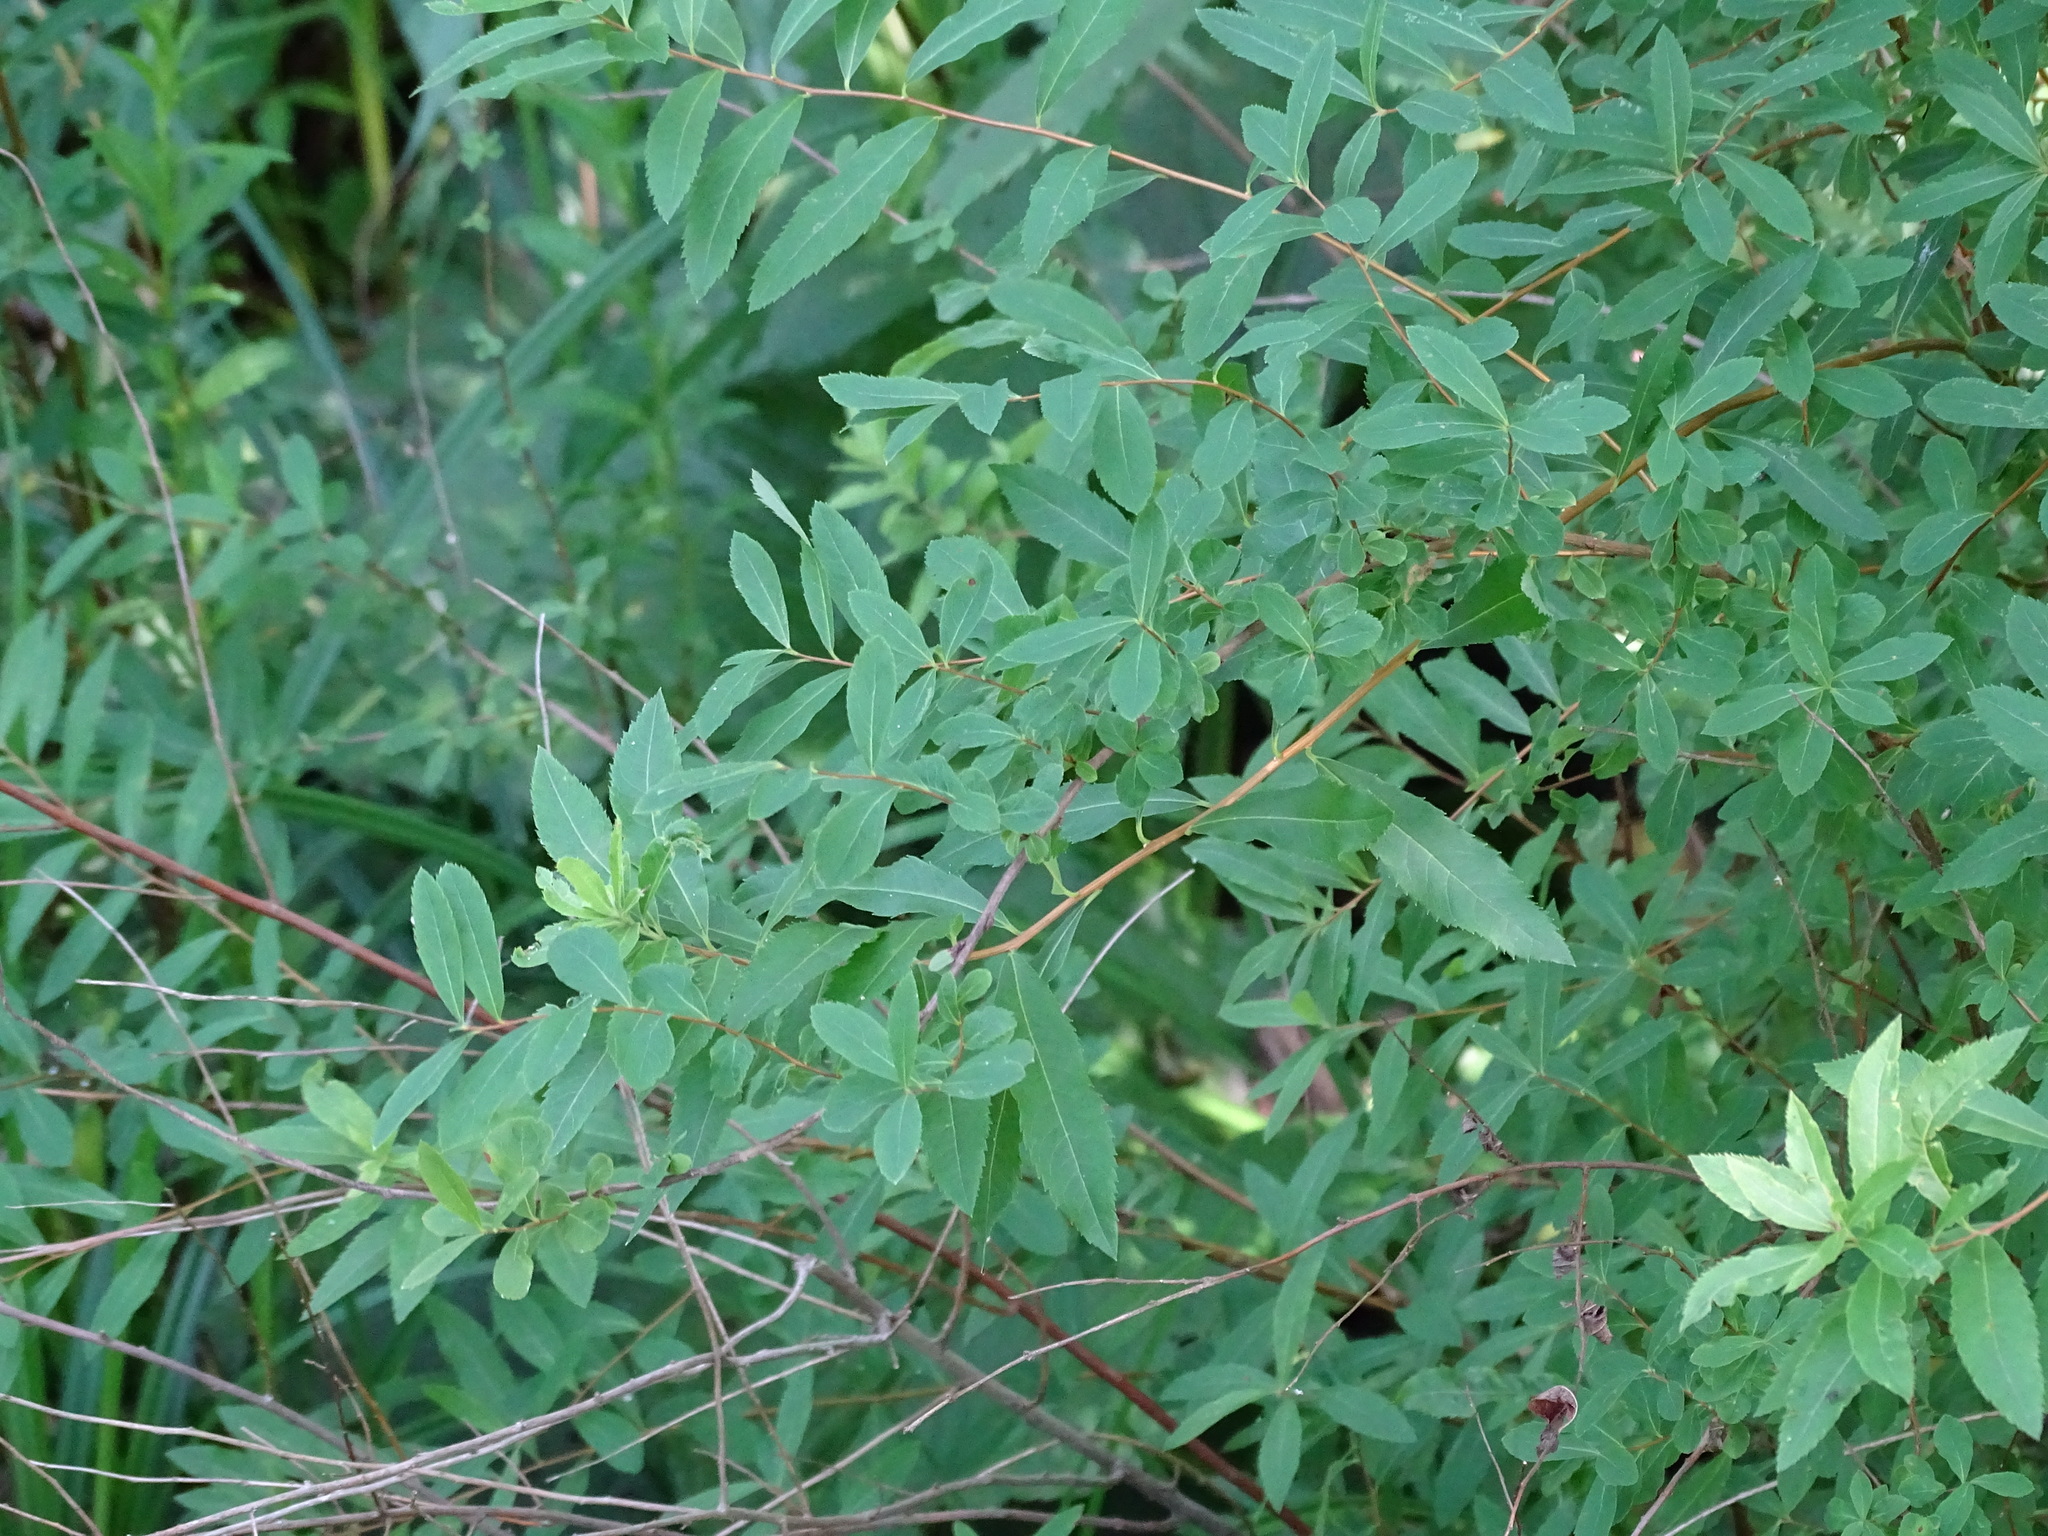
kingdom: Plantae
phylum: Tracheophyta
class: Magnoliopsida
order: Rosales
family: Rosaceae
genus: Spiraea
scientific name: Spiraea alba
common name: Pale bridewort
